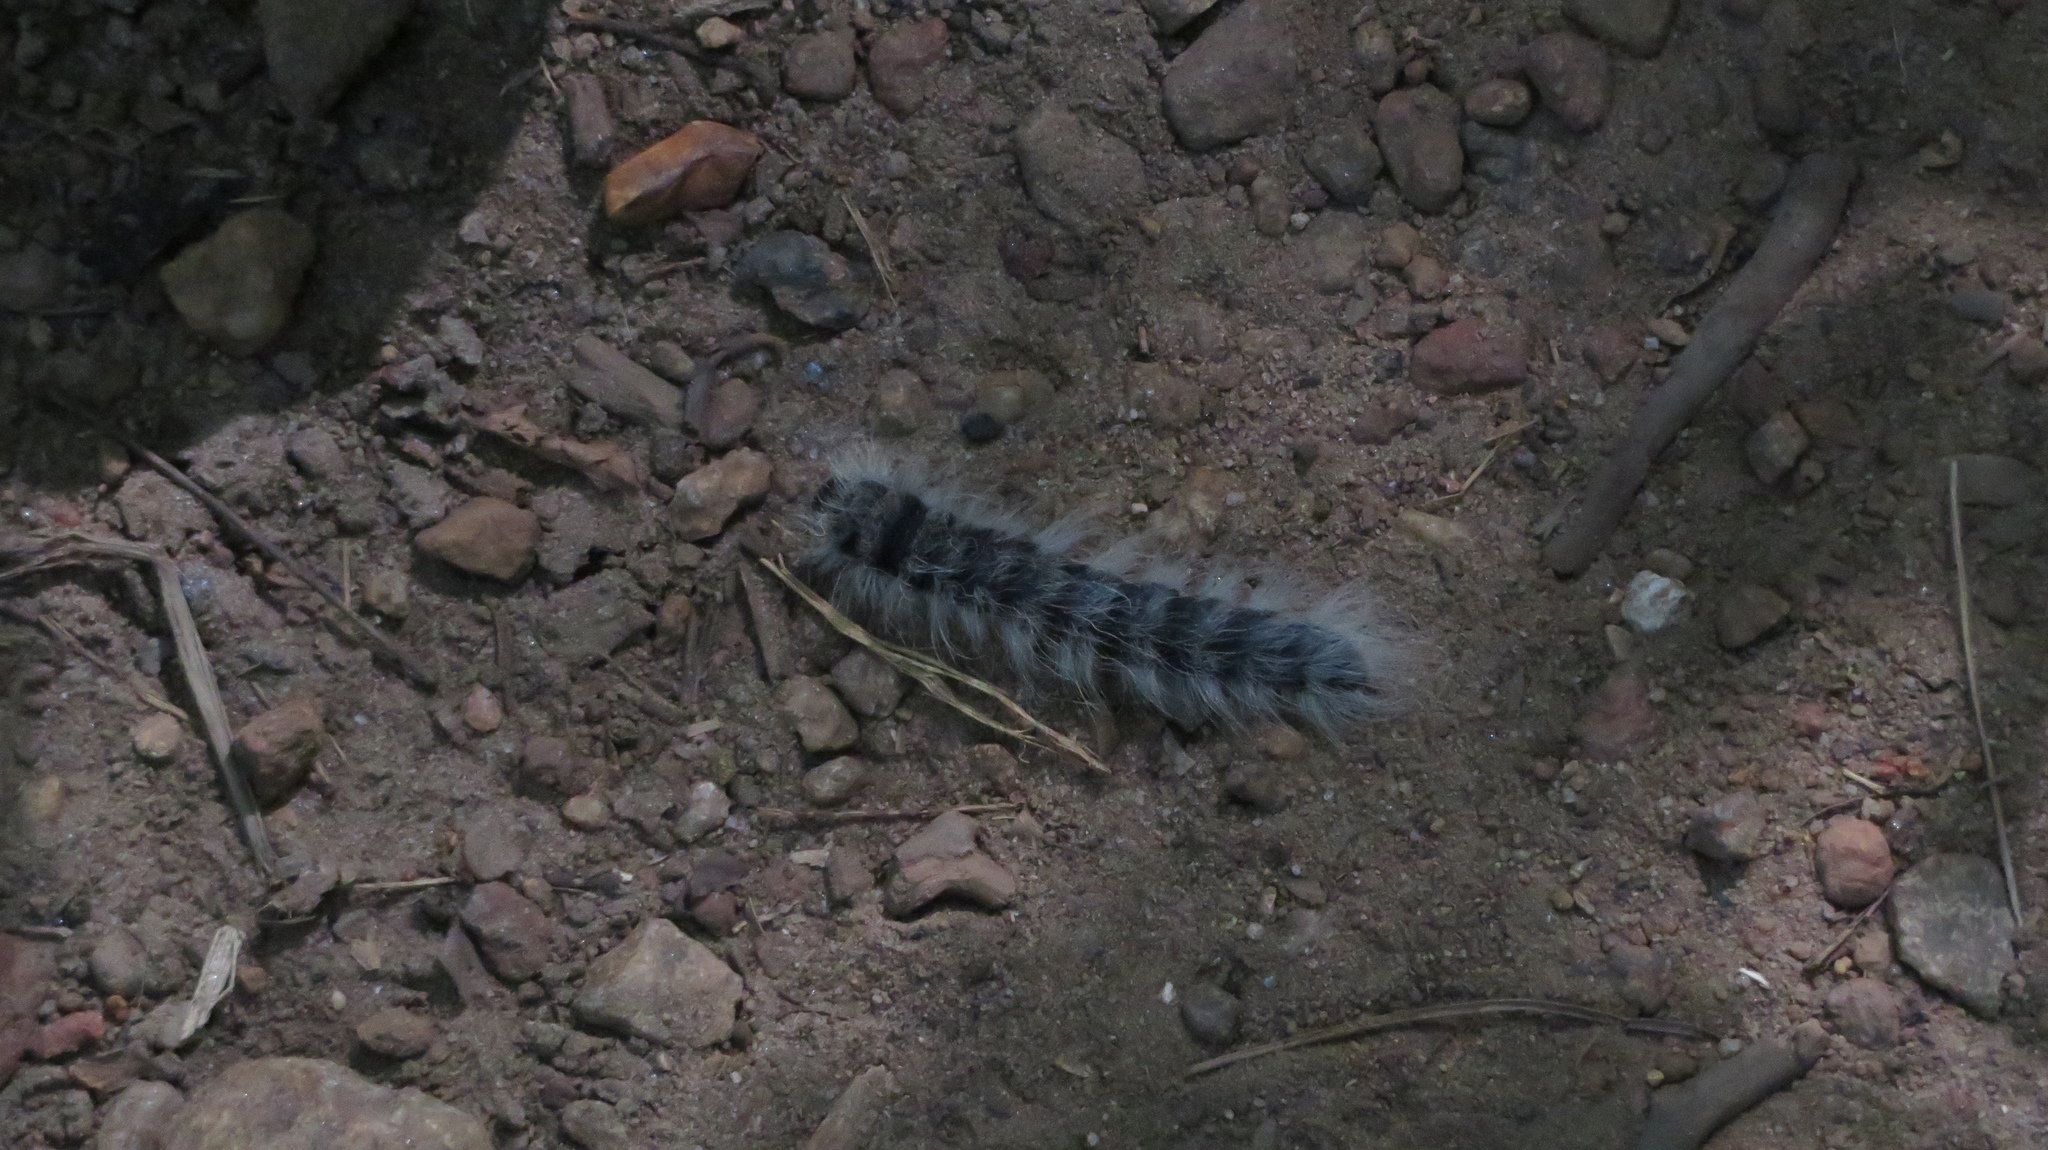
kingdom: Animalia
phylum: Arthropoda
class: Insecta
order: Lepidoptera
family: Notodontidae
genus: Datana
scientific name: Datana integerrima
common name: Walnut caterpillar
